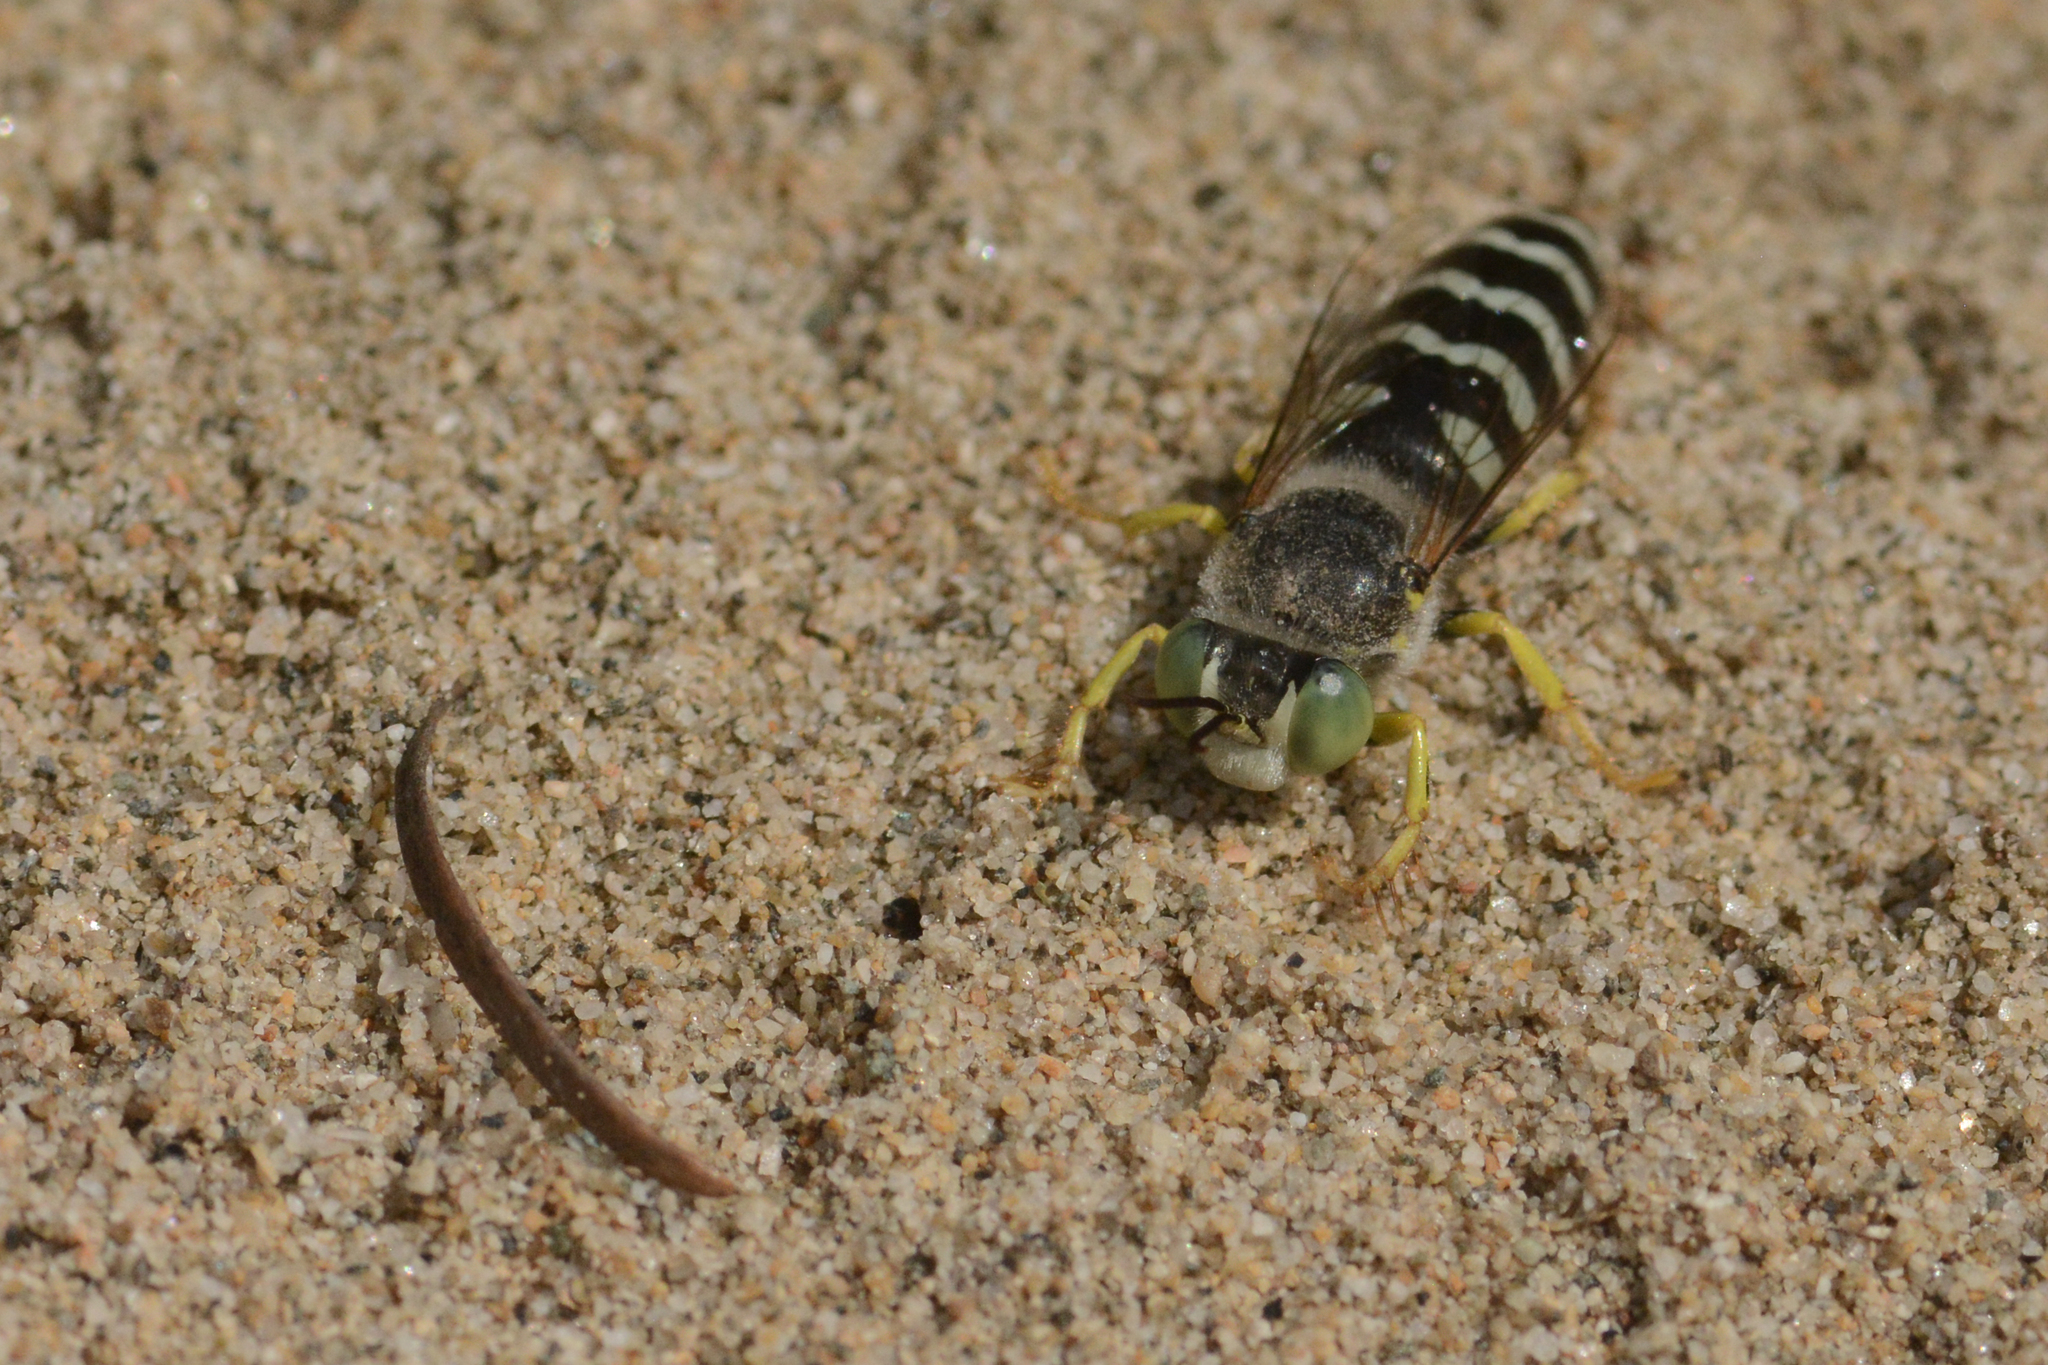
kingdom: Animalia
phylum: Arthropoda
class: Insecta
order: Hymenoptera
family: Crabronidae
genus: Bembix
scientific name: Bembix americana
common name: American sand wasp
